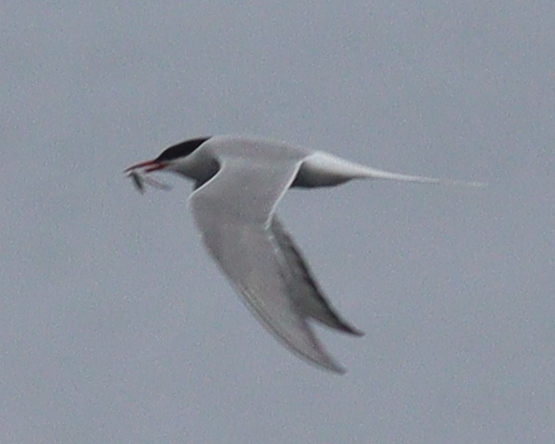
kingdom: Animalia
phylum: Chordata
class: Aves
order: Charadriiformes
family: Laridae
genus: Sterna
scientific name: Sterna paradisaea
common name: Arctic tern
